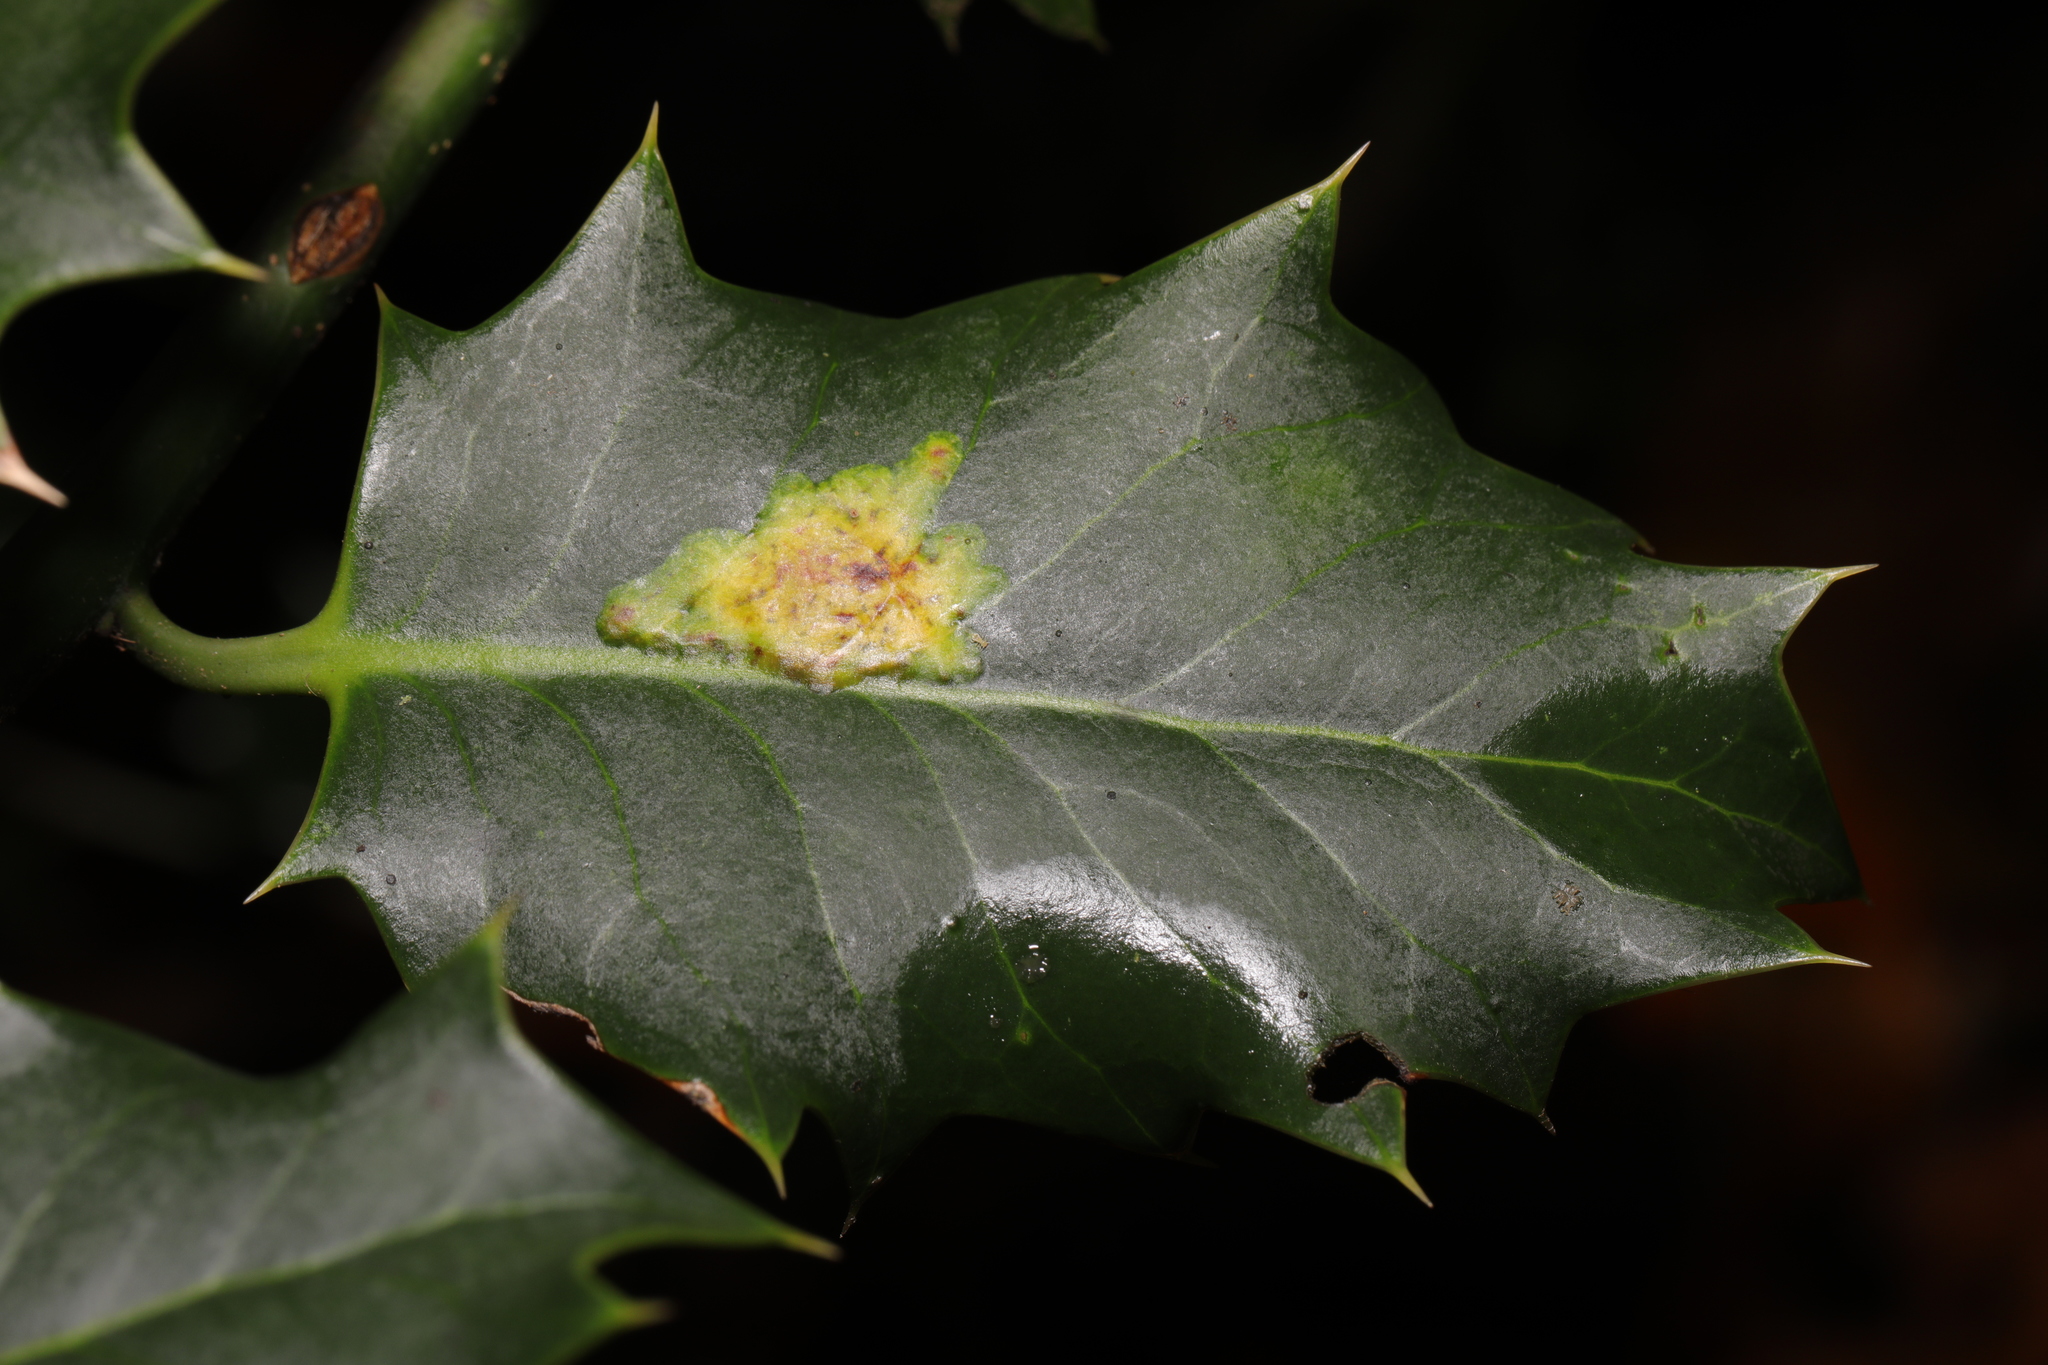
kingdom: Animalia
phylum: Arthropoda
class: Insecta
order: Diptera
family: Agromyzidae
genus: Phytomyza
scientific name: Phytomyza ilicis
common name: Holly leafminer
